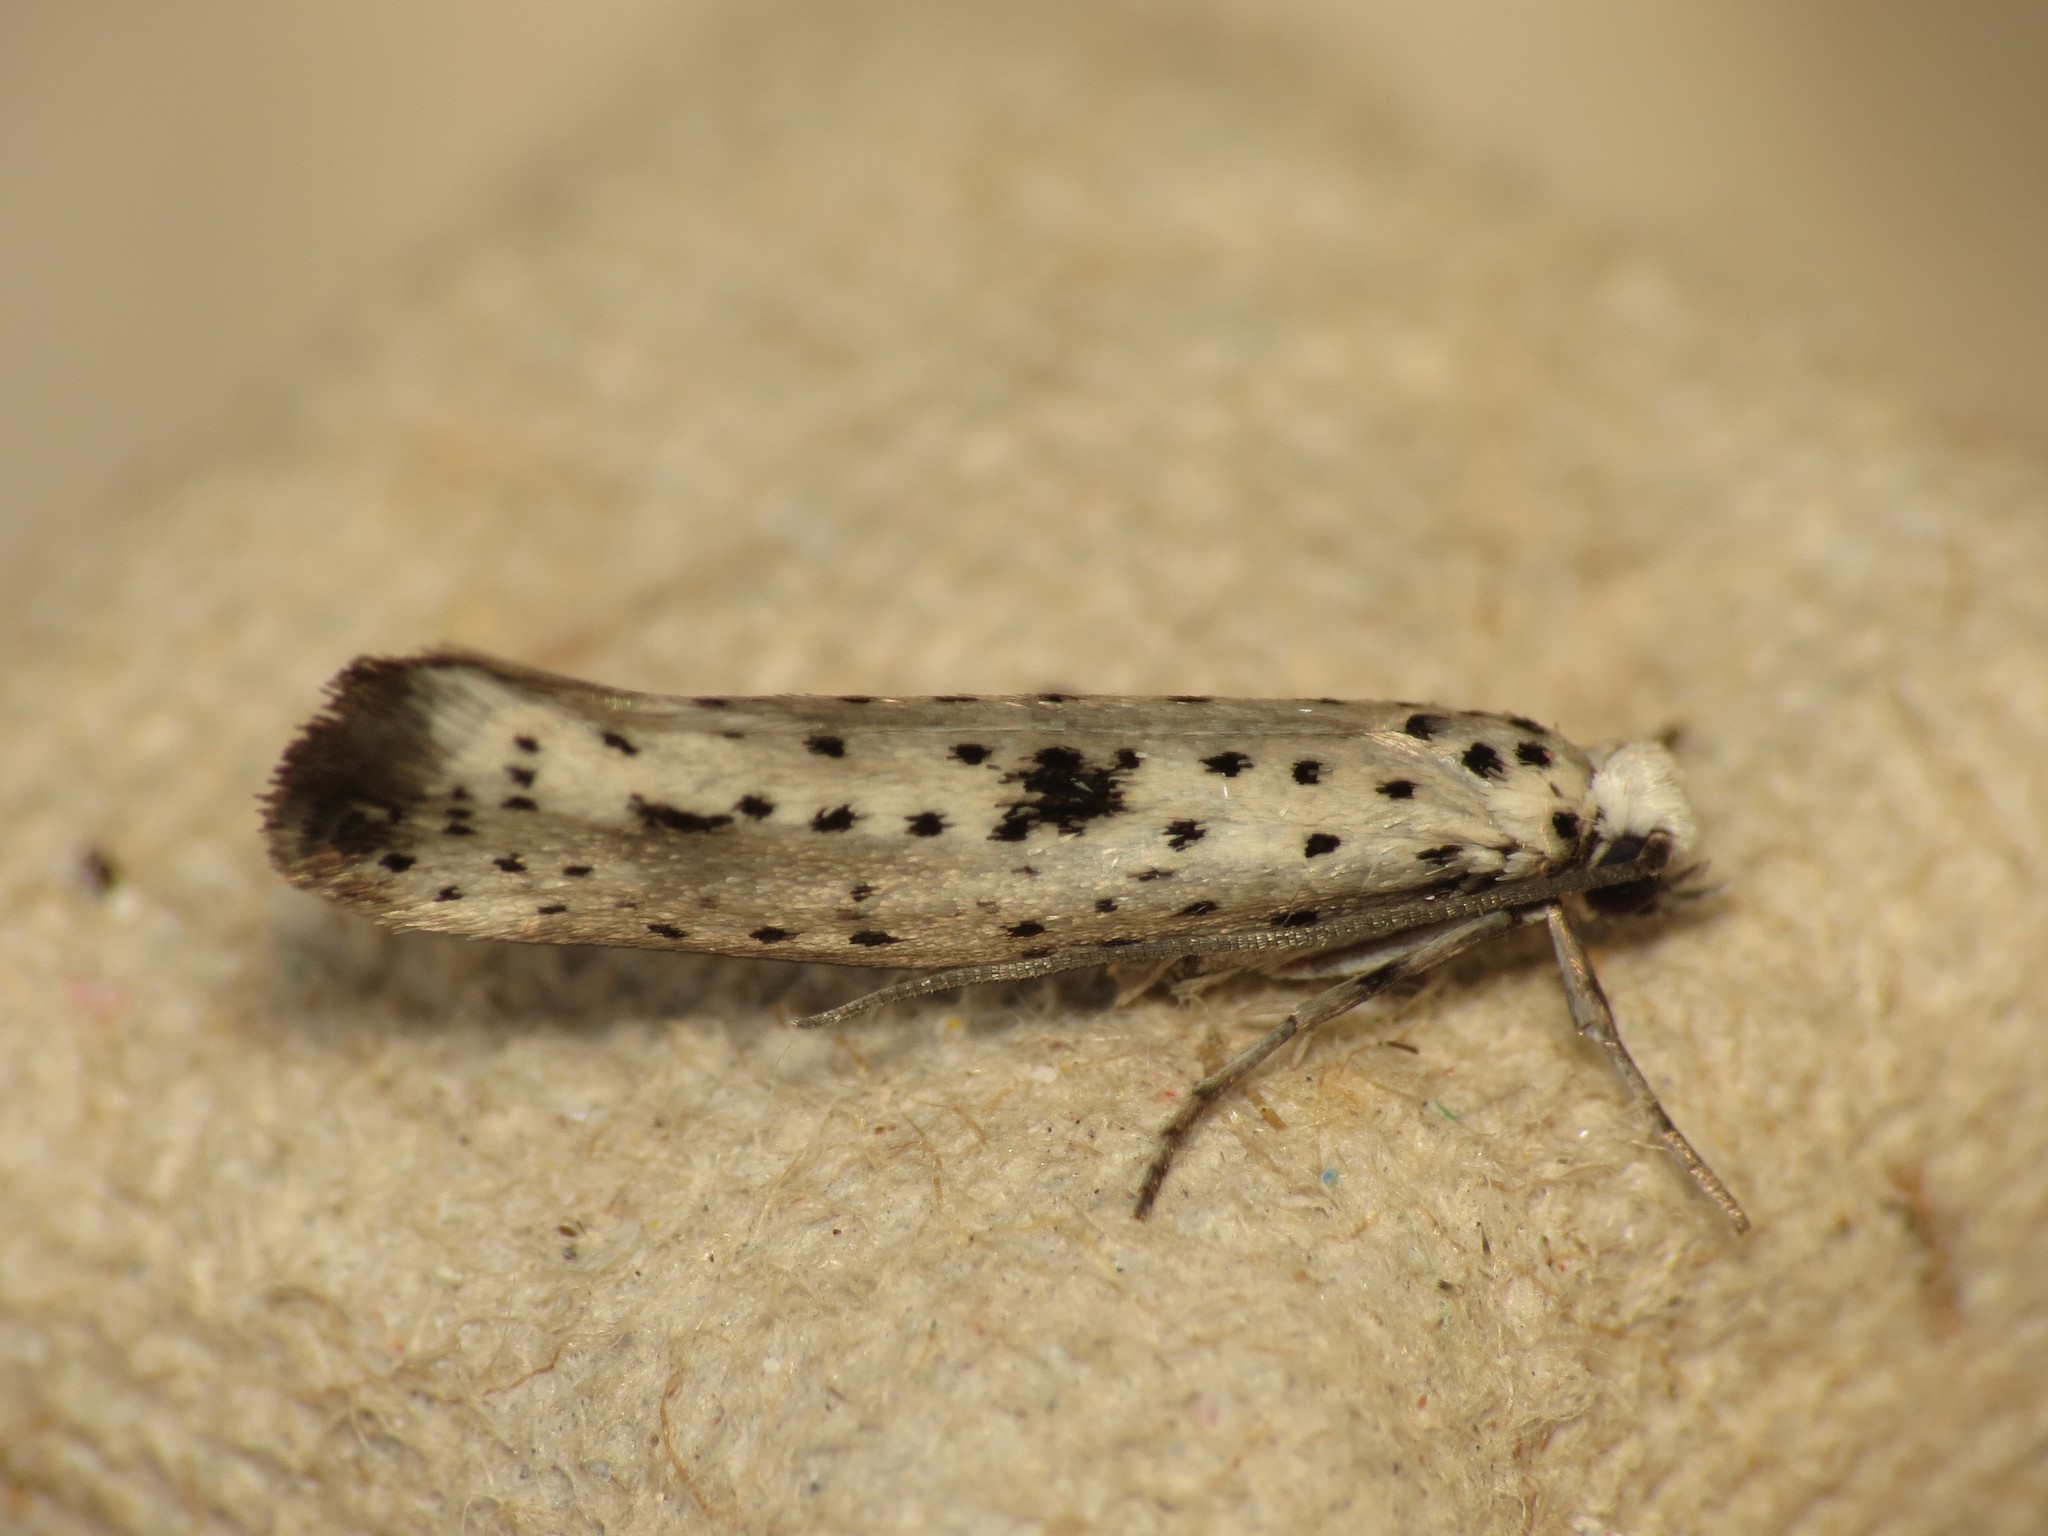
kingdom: Animalia
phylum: Arthropoda
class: Insecta
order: Lepidoptera
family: Yponomeutidae
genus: Yponomeuta
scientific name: Yponomeuta plumbella
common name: Black-tipped ermine
